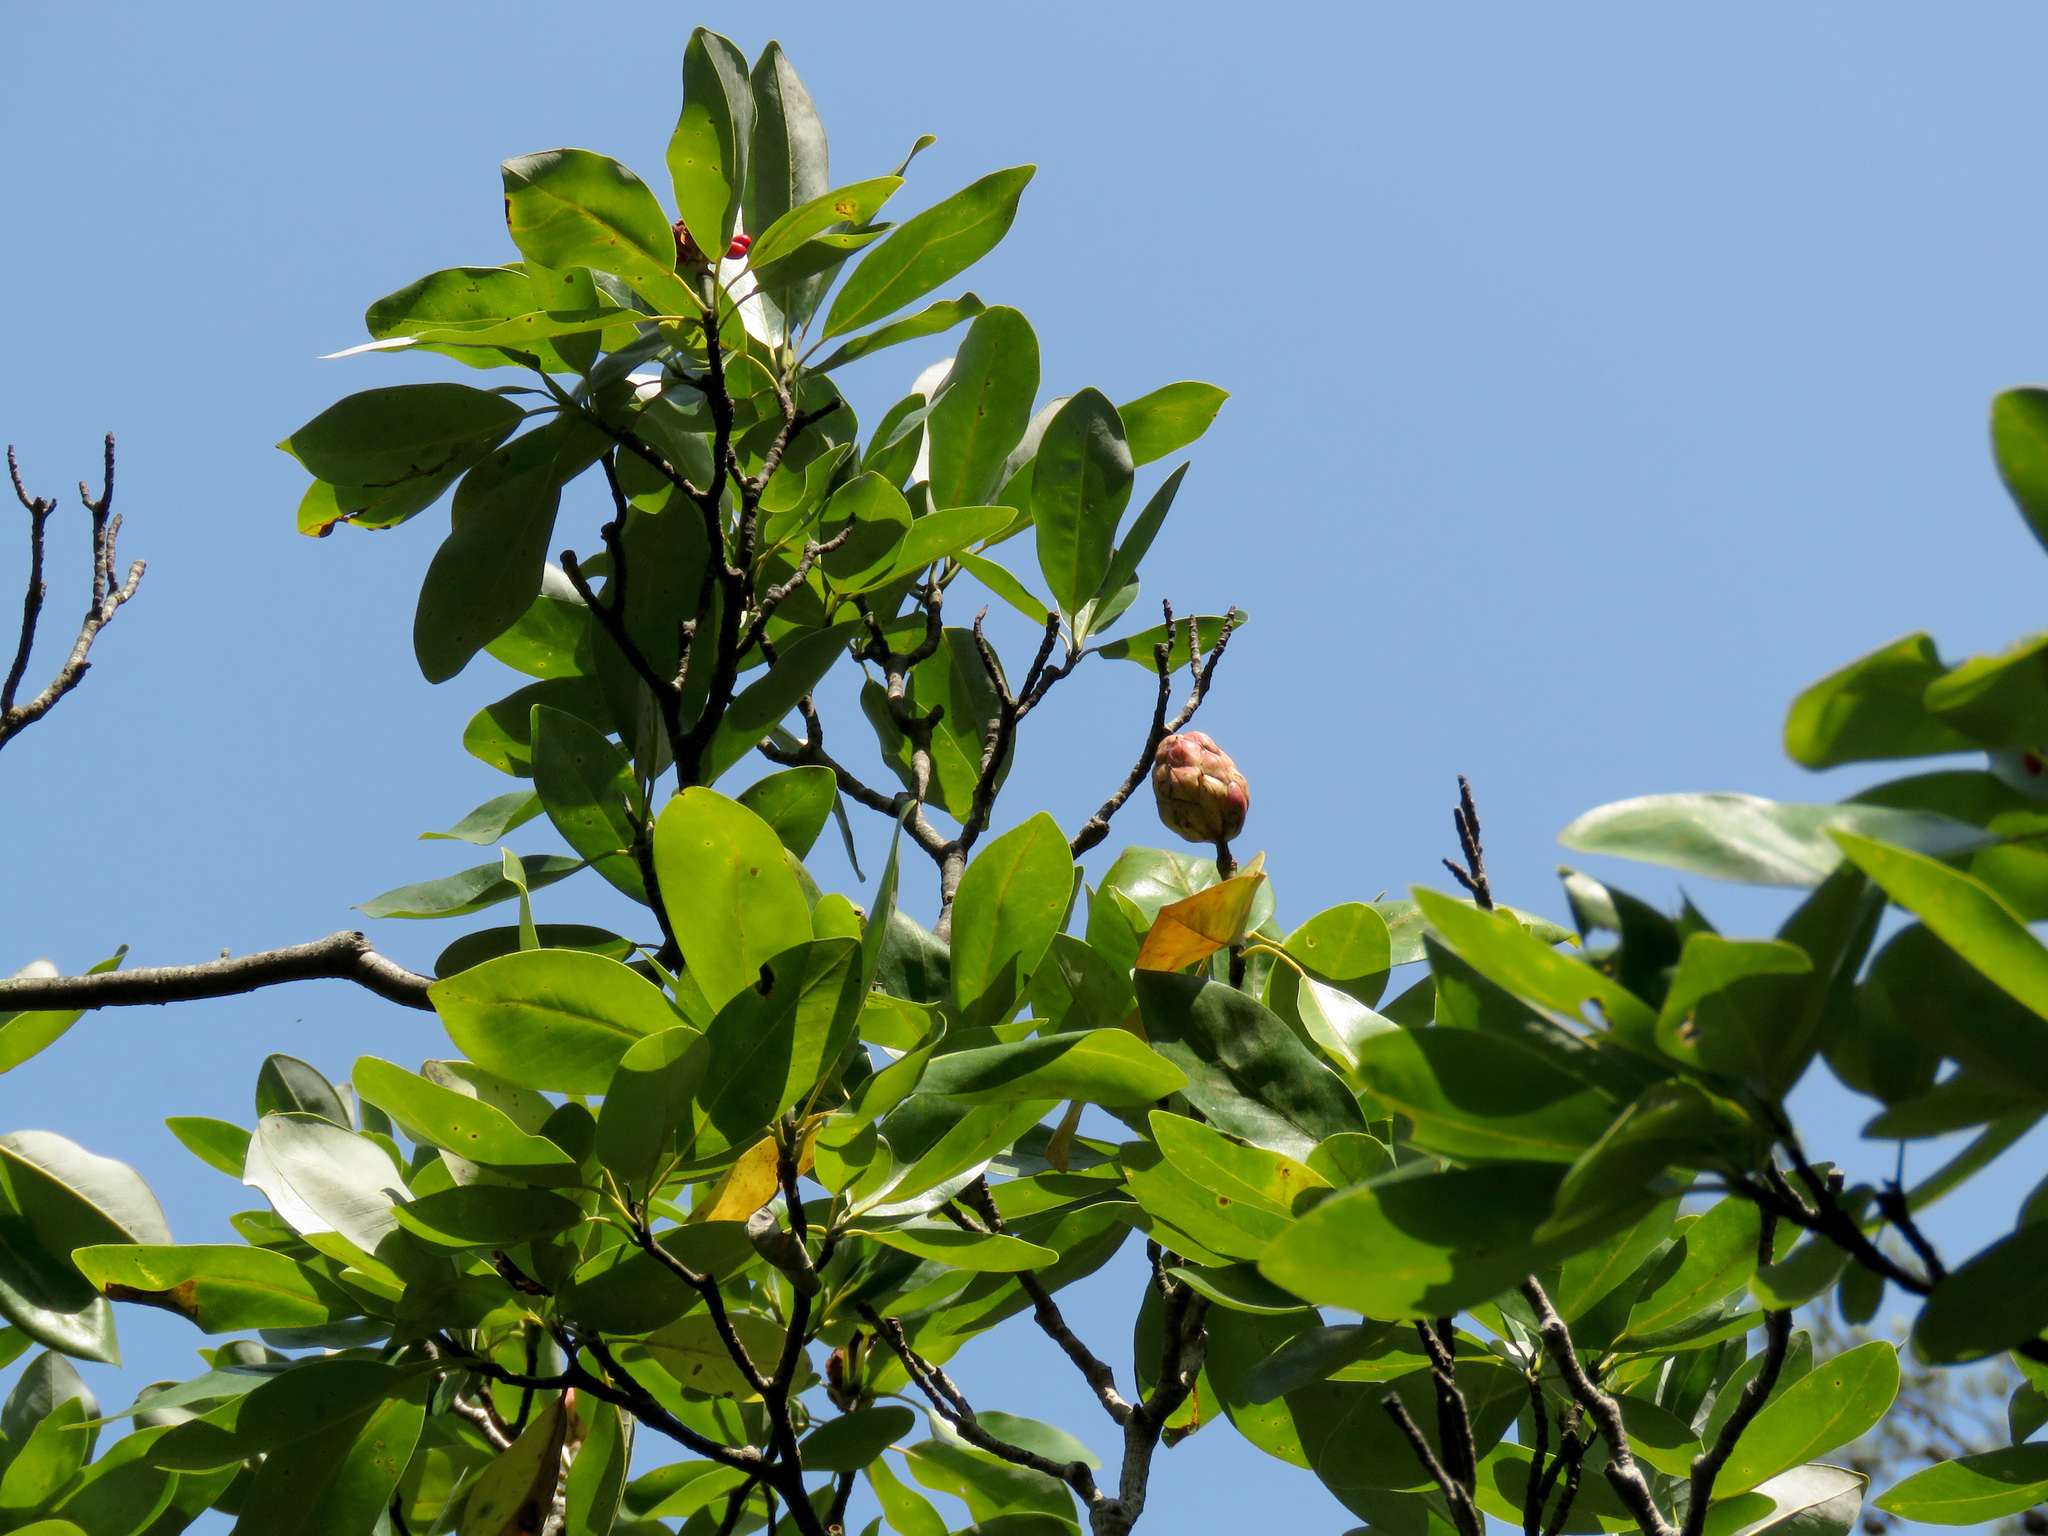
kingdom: Plantae
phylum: Tracheophyta
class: Magnoliopsida
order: Magnoliales
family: Magnoliaceae
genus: Magnolia
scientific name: Magnolia virginiana
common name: Swamp bay
